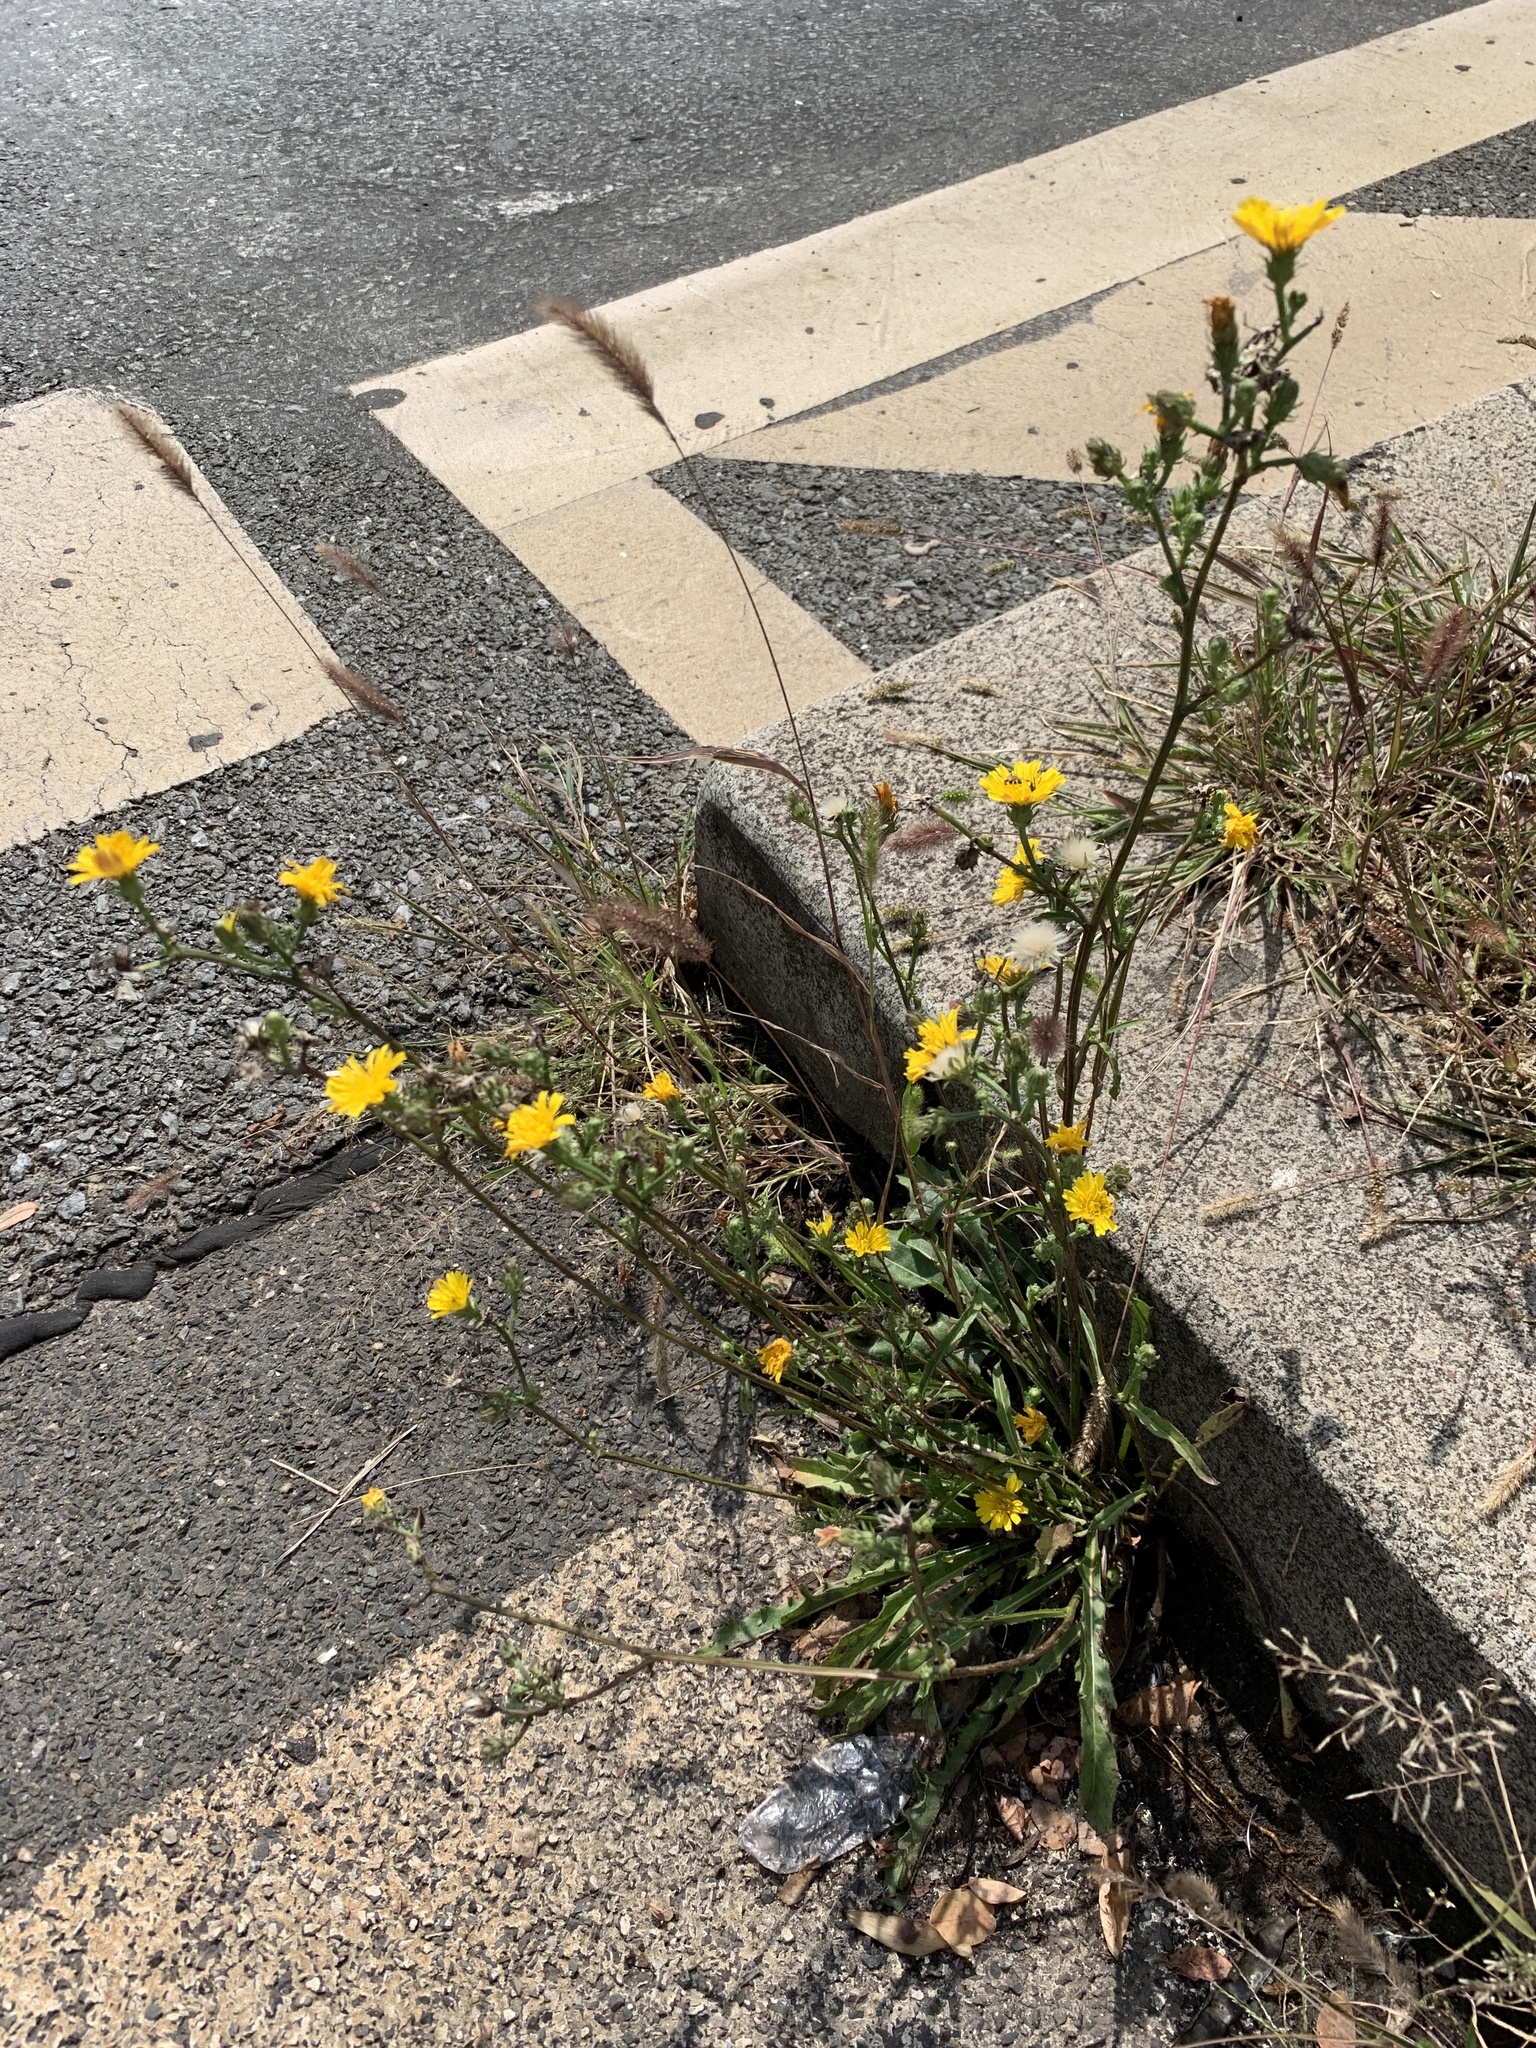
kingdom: Plantae
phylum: Tracheophyta
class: Magnoliopsida
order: Asterales
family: Asteraceae
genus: Picris
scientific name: Picris hieracioides
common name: Hawkweed oxtongue
